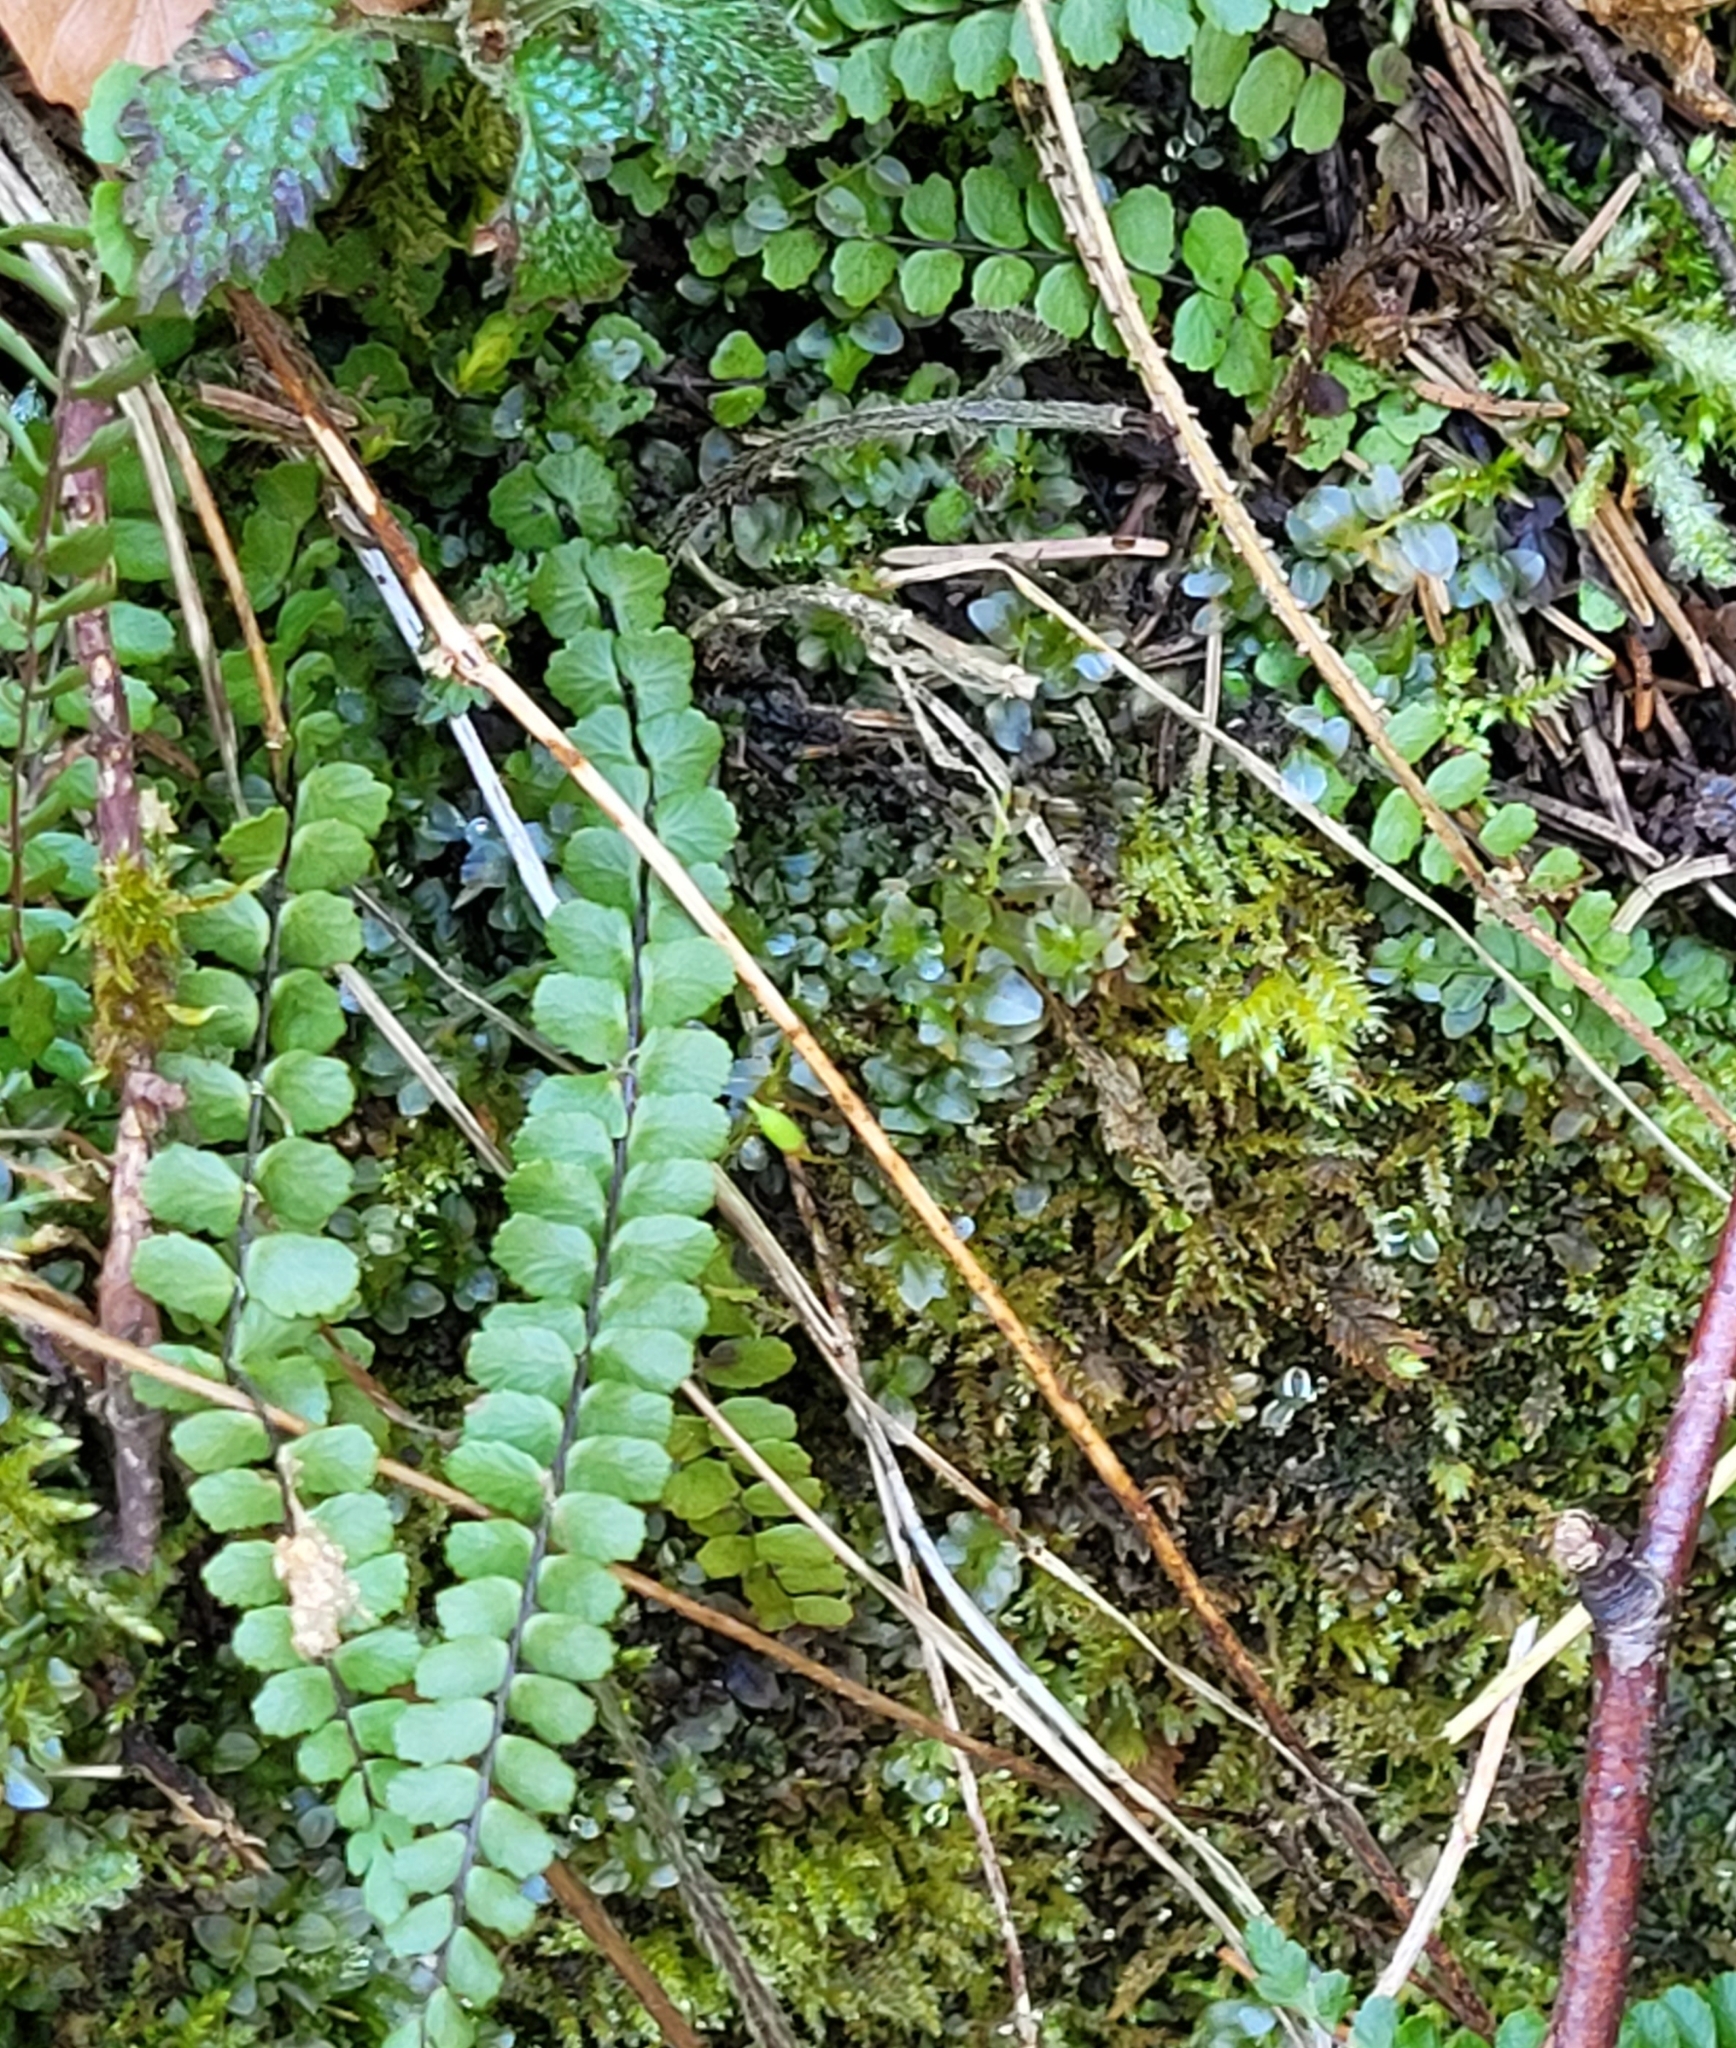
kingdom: Plantae
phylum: Tracheophyta
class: Polypodiopsida
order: Polypodiales
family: Aspleniaceae
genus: Asplenium
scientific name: Asplenium trichomanes
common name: Maidenhair spleenwort
